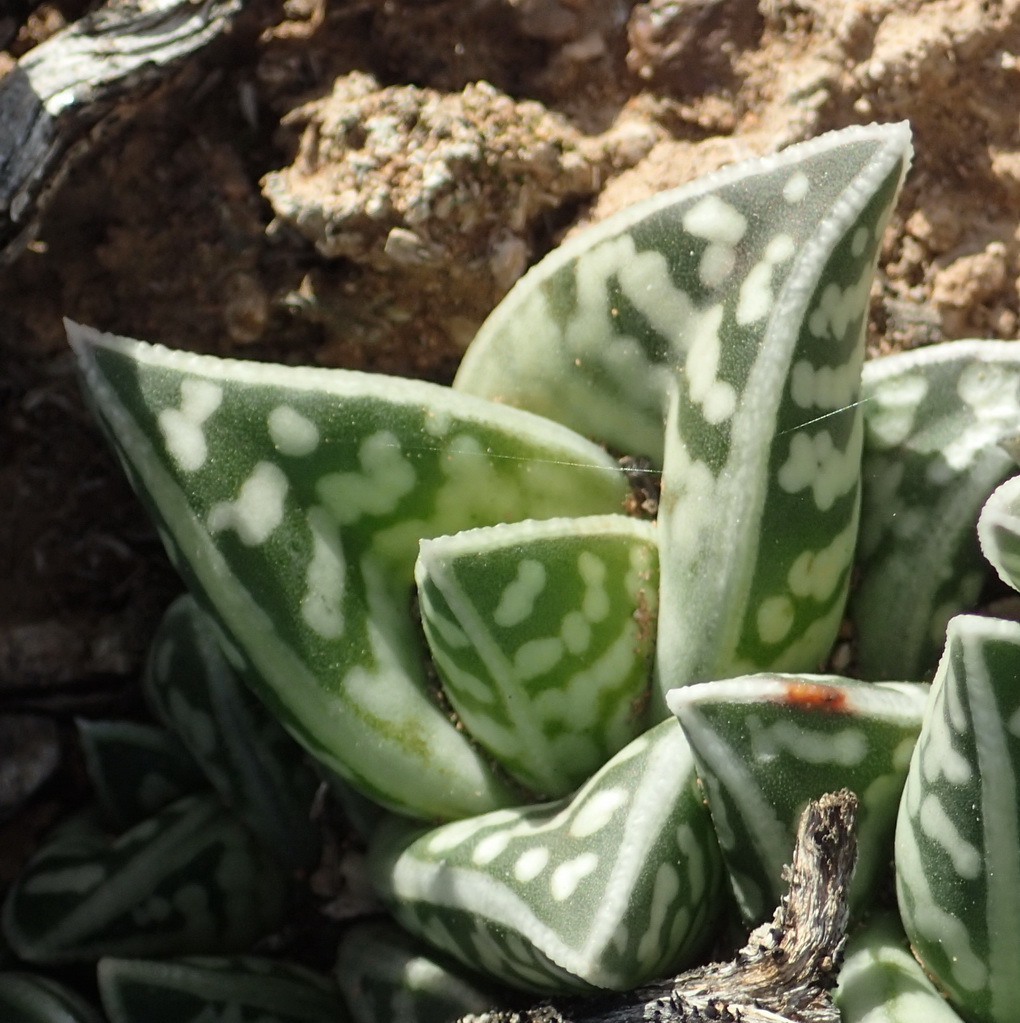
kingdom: Plantae
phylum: Tracheophyta
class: Liliopsida
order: Asparagales
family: Asphodelaceae
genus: Gonialoe
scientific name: Gonialoe variegata
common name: Aloe variegata
